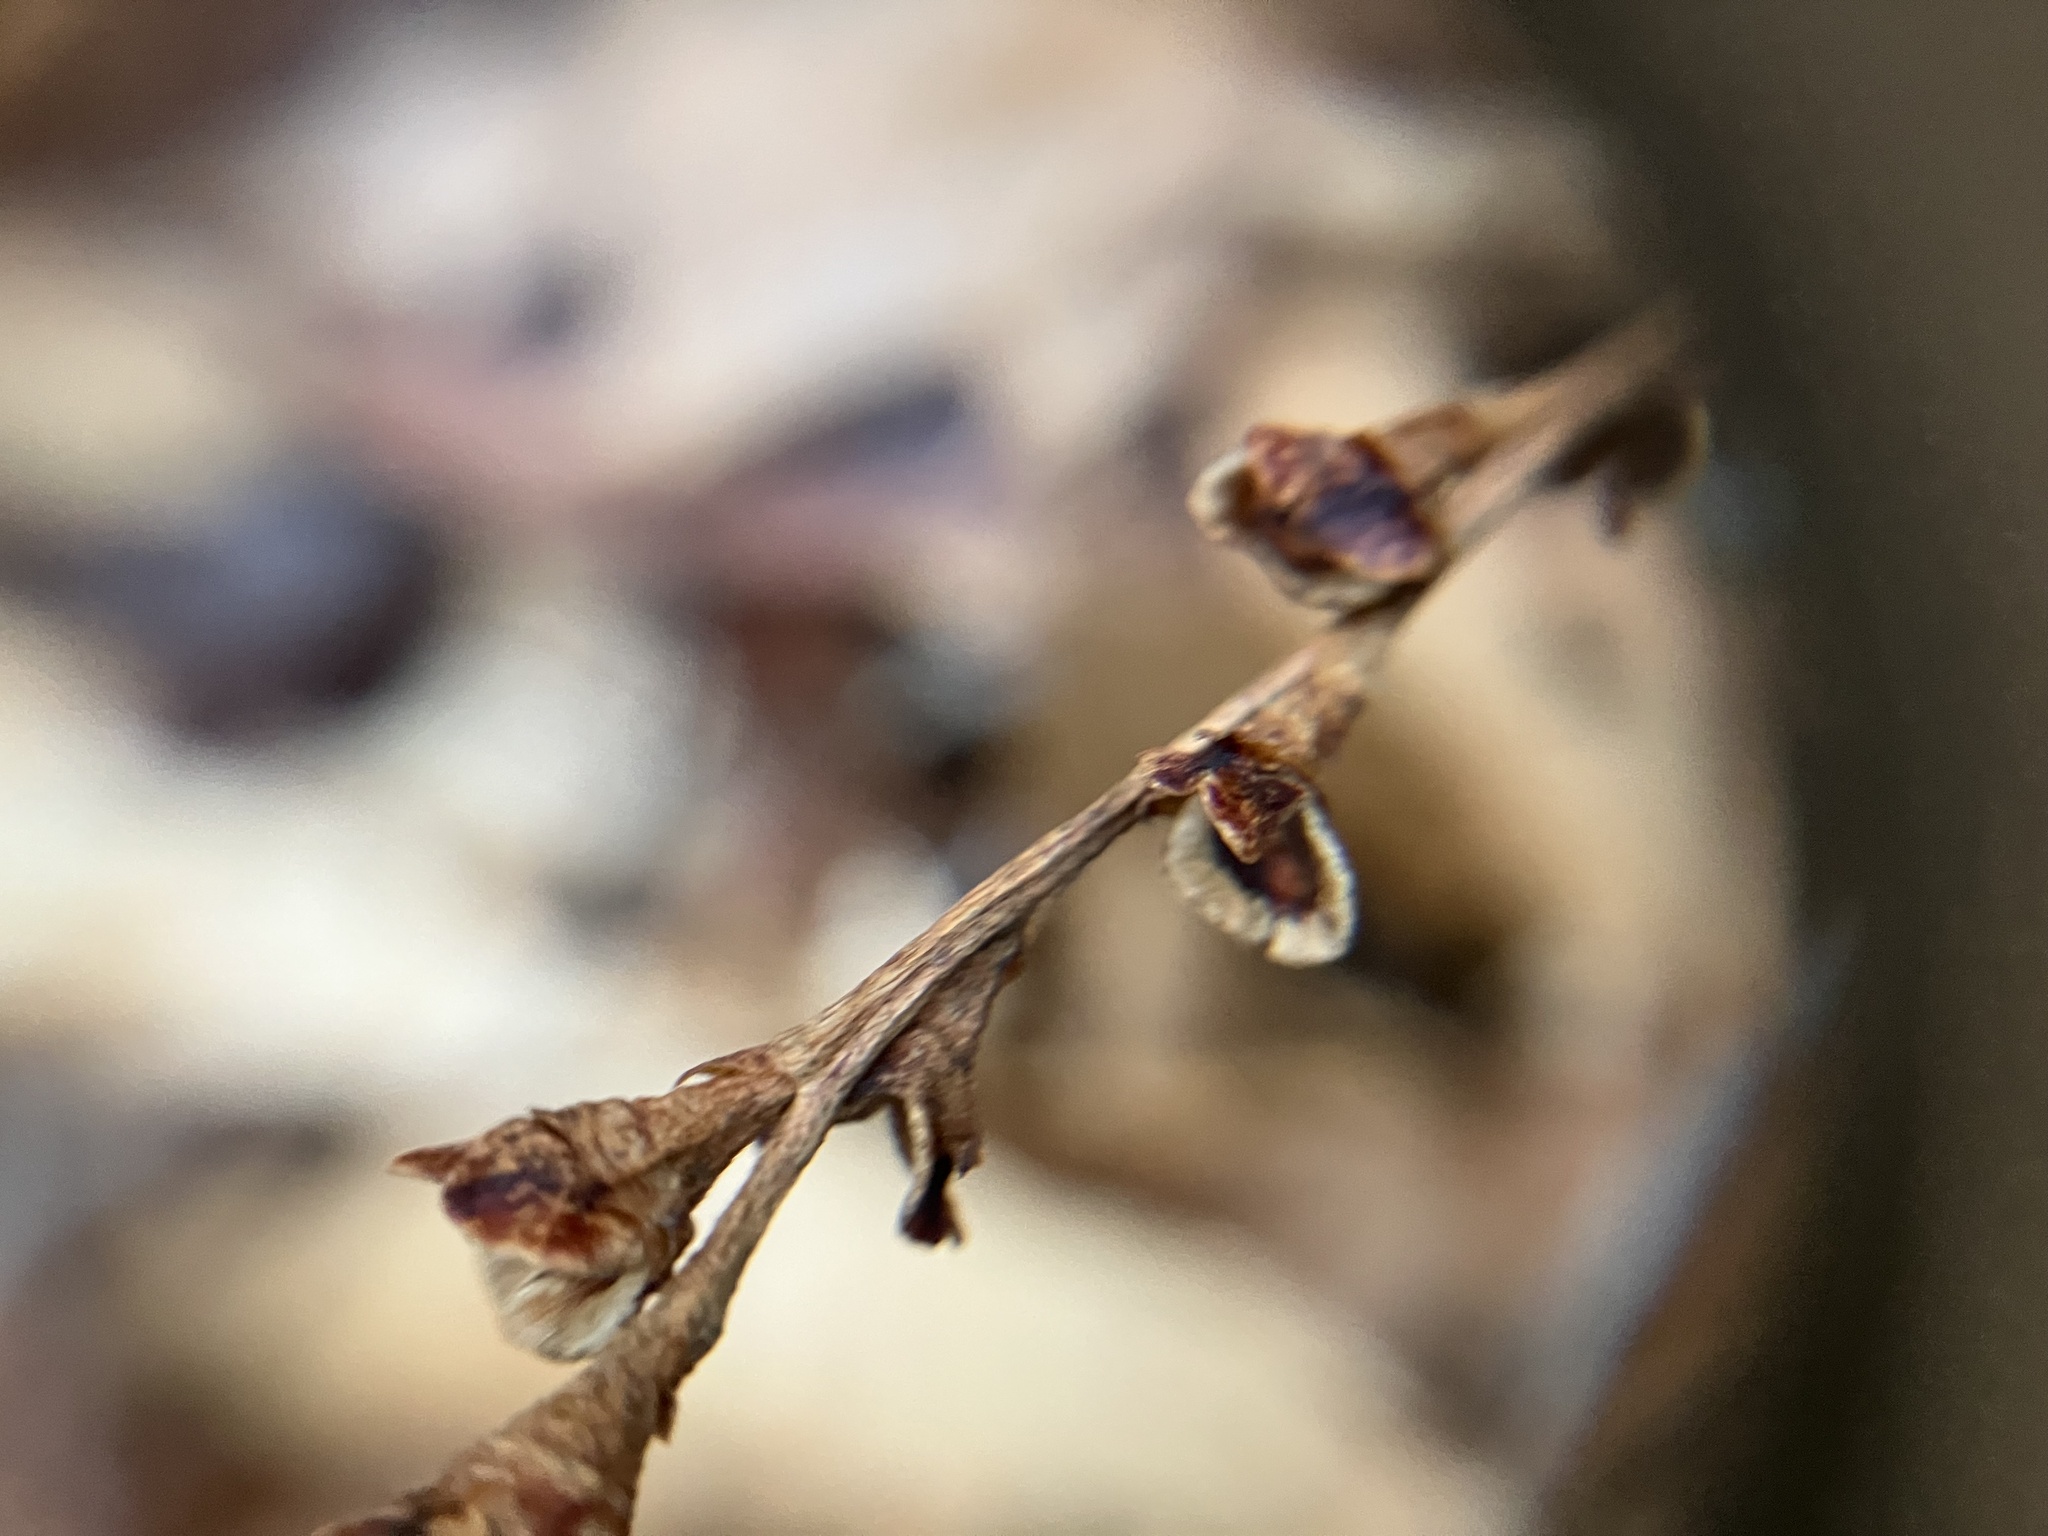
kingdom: Plantae
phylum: Tracheophyta
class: Magnoliopsida
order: Lamiales
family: Orobanchaceae
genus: Epifagus
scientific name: Epifagus virginiana
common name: Beechdrops
